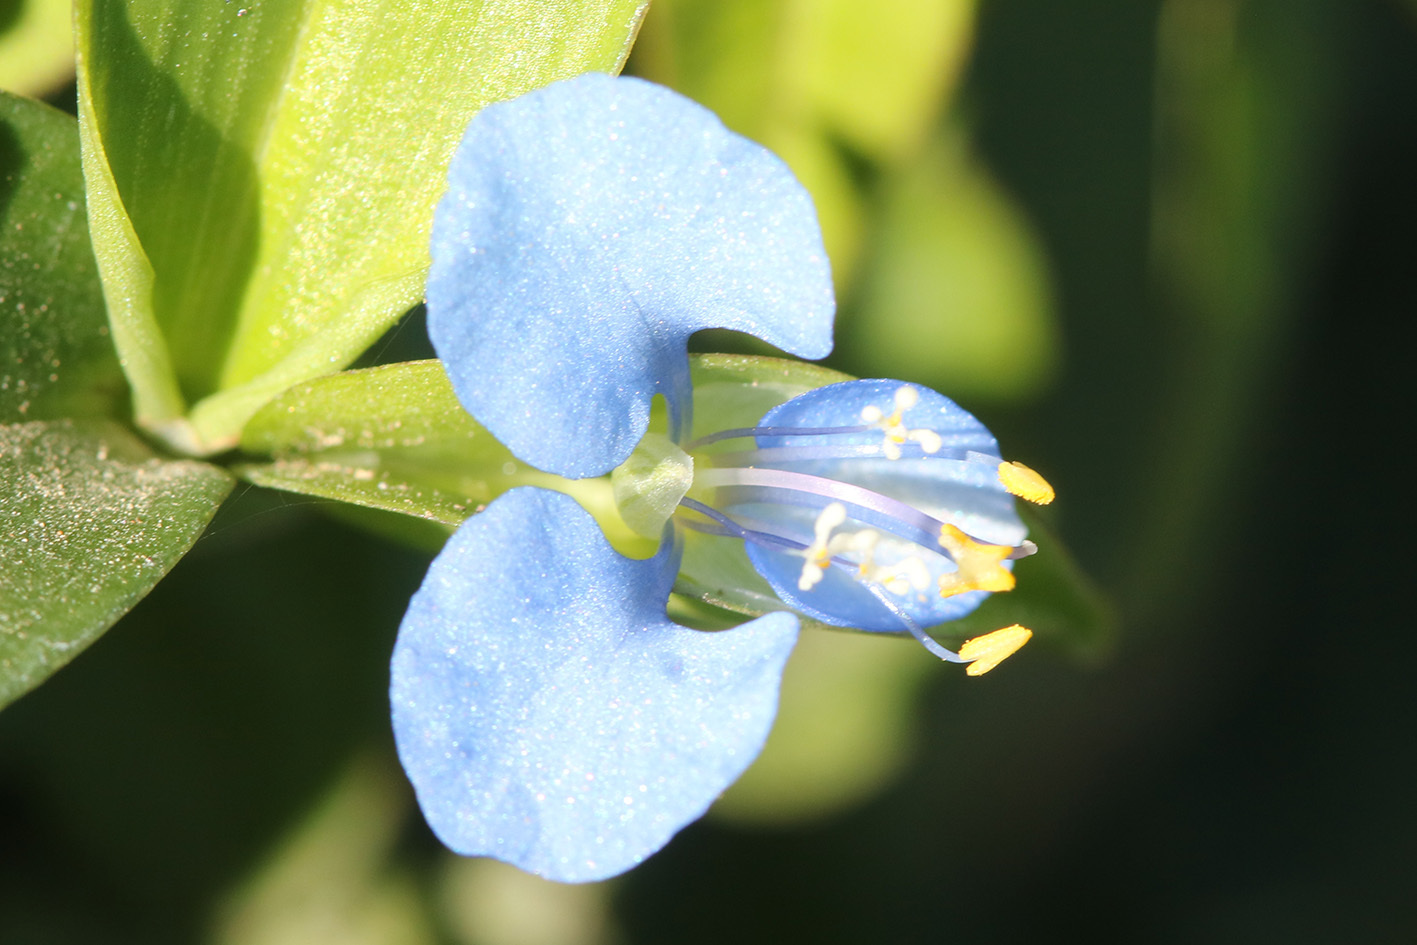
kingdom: Plantae
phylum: Tracheophyta
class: Liliopsida
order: Commelinales
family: Commelinaceae
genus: Commelina
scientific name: Commelina diffusa
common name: Climbing dayflower
